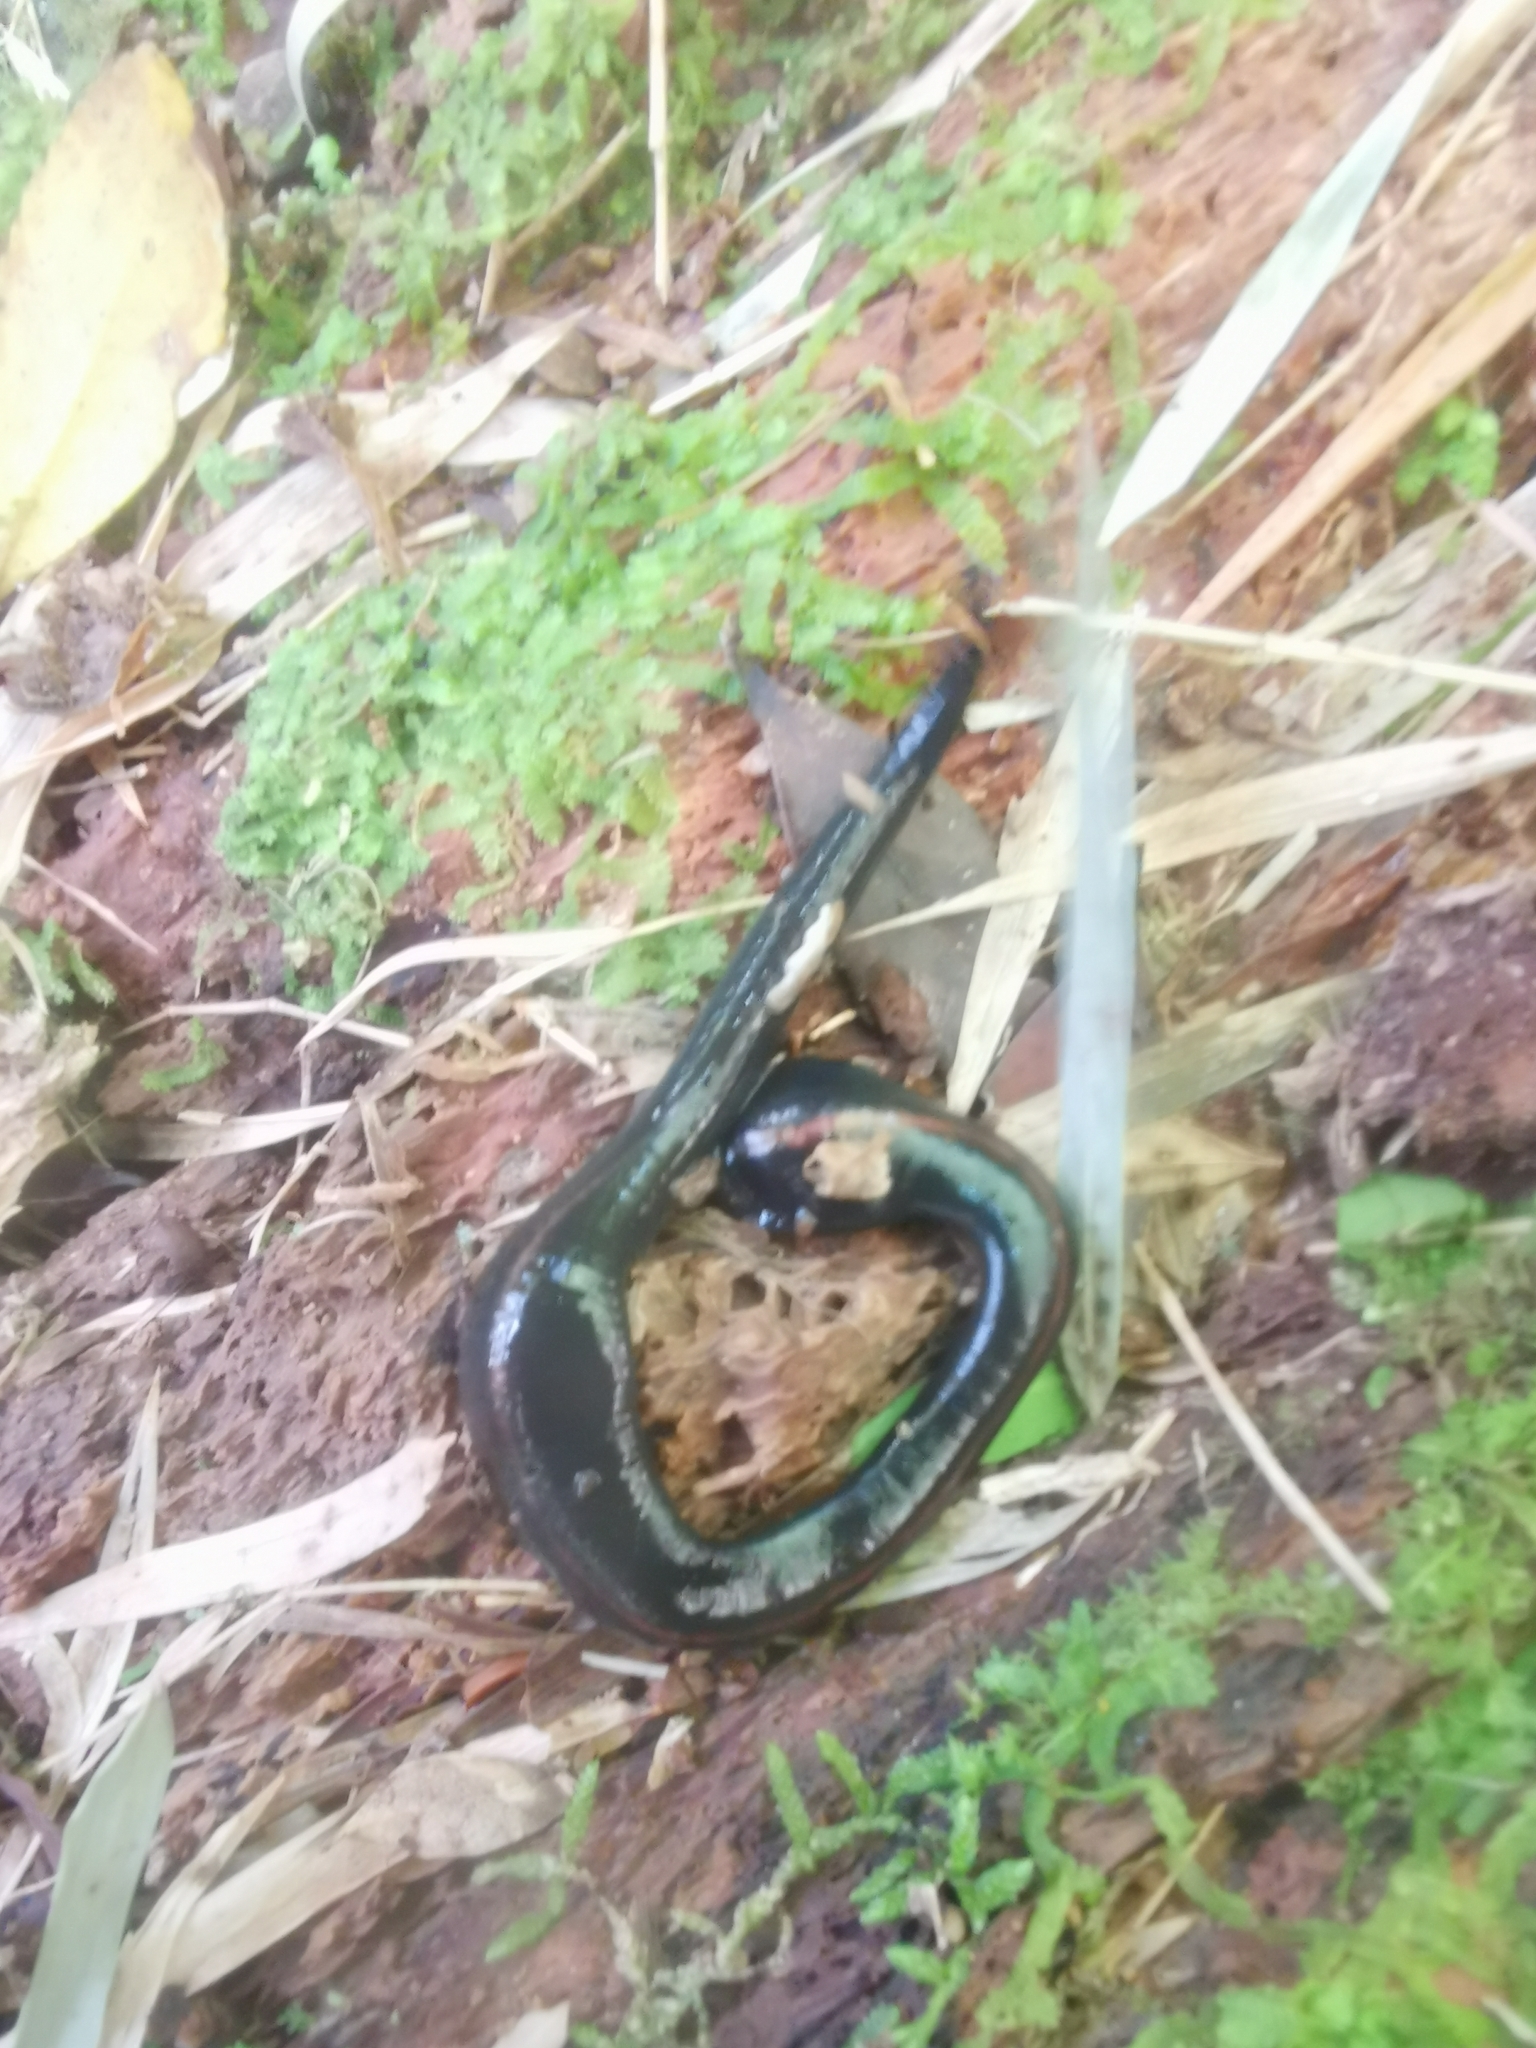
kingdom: Animalia
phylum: Annelida
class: Clitellata
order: Arhynchobdellida
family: Americobdellidae
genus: Americobdella
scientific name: Americobdella valdiviana
